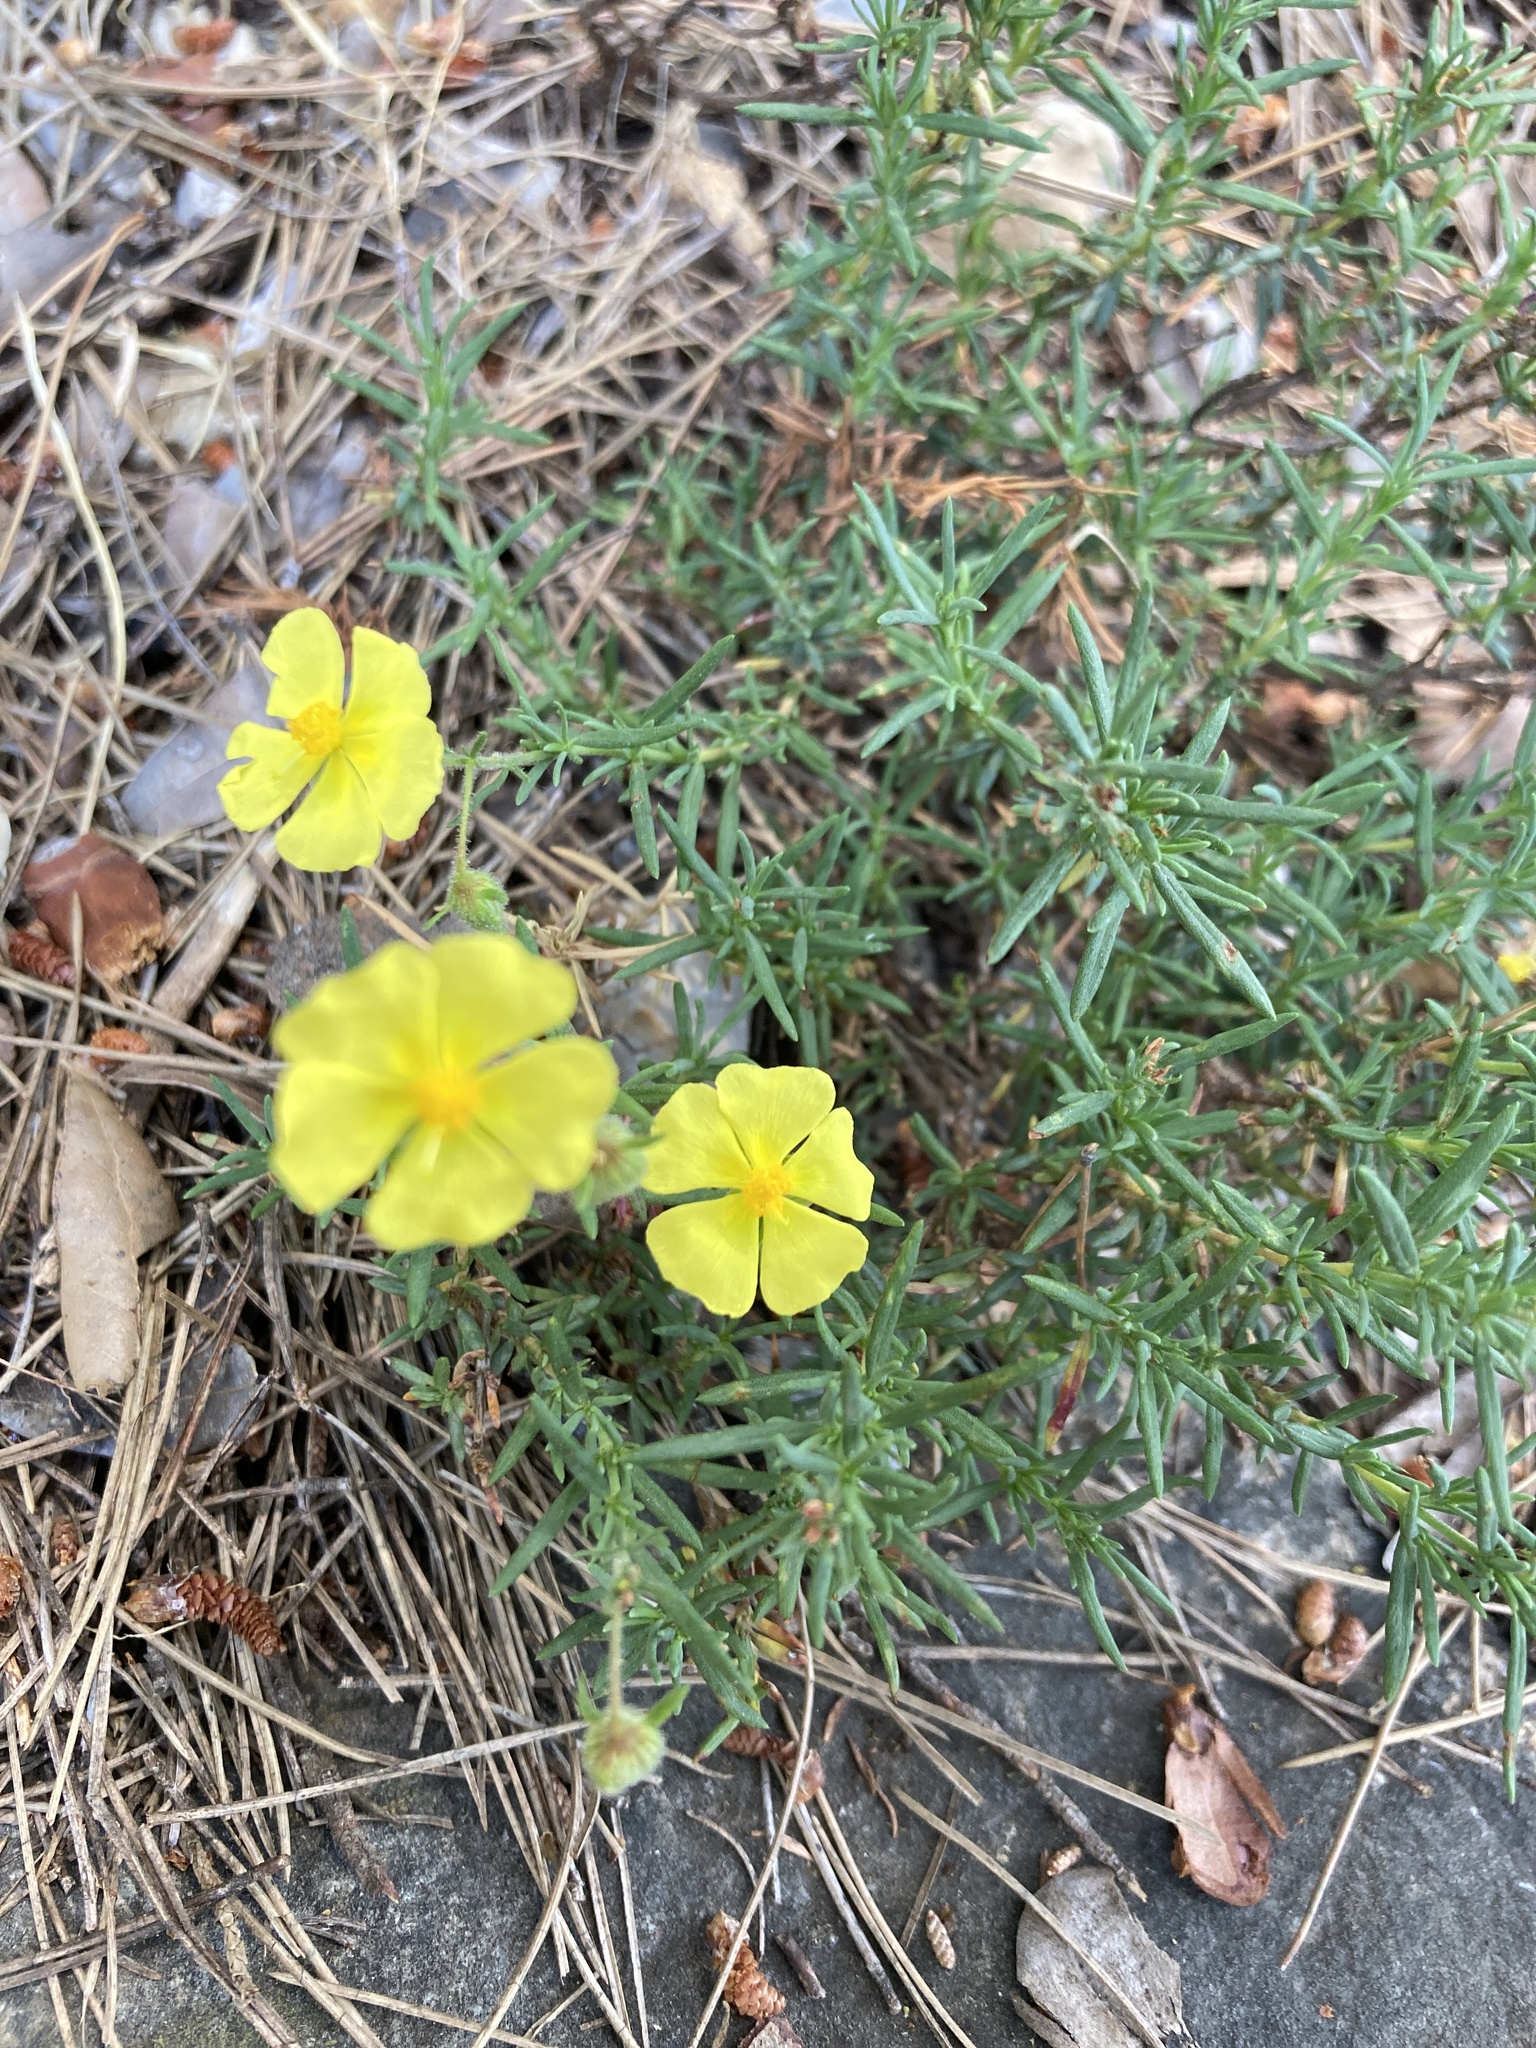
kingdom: Plantae
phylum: Tracheophyta
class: Magnoliopsida
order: Malvales
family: Cistaceae
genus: Fumana
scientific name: Fumana laevis
